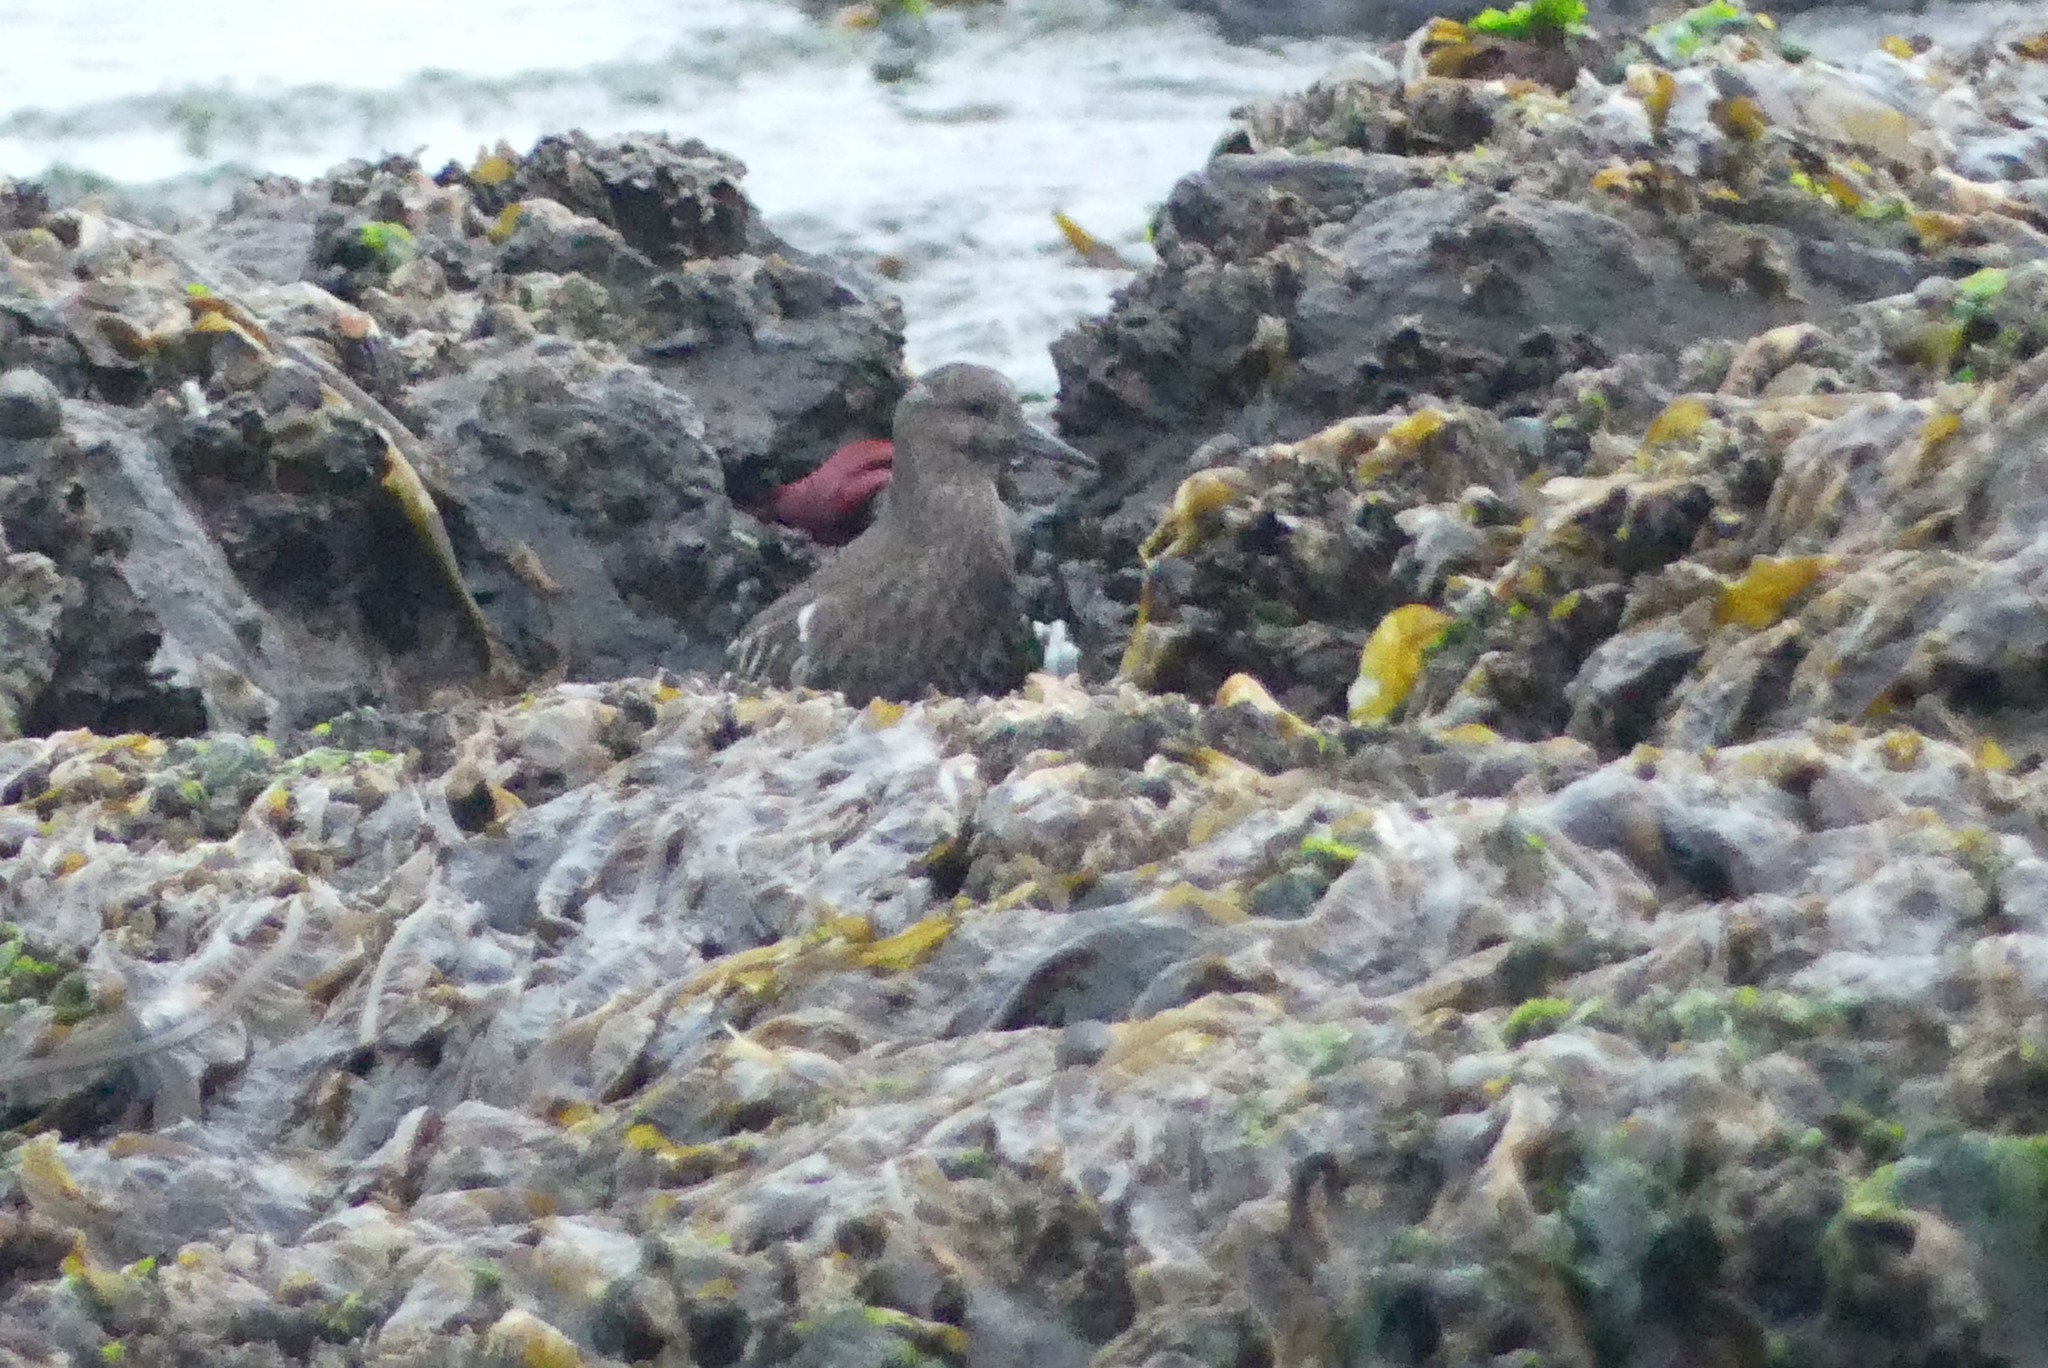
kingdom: Animalia
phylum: Chordata
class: Aves
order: Charadriiformes
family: Scolopacidae
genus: Arenaria
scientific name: Arenaria melanocephala
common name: Black turnstone
